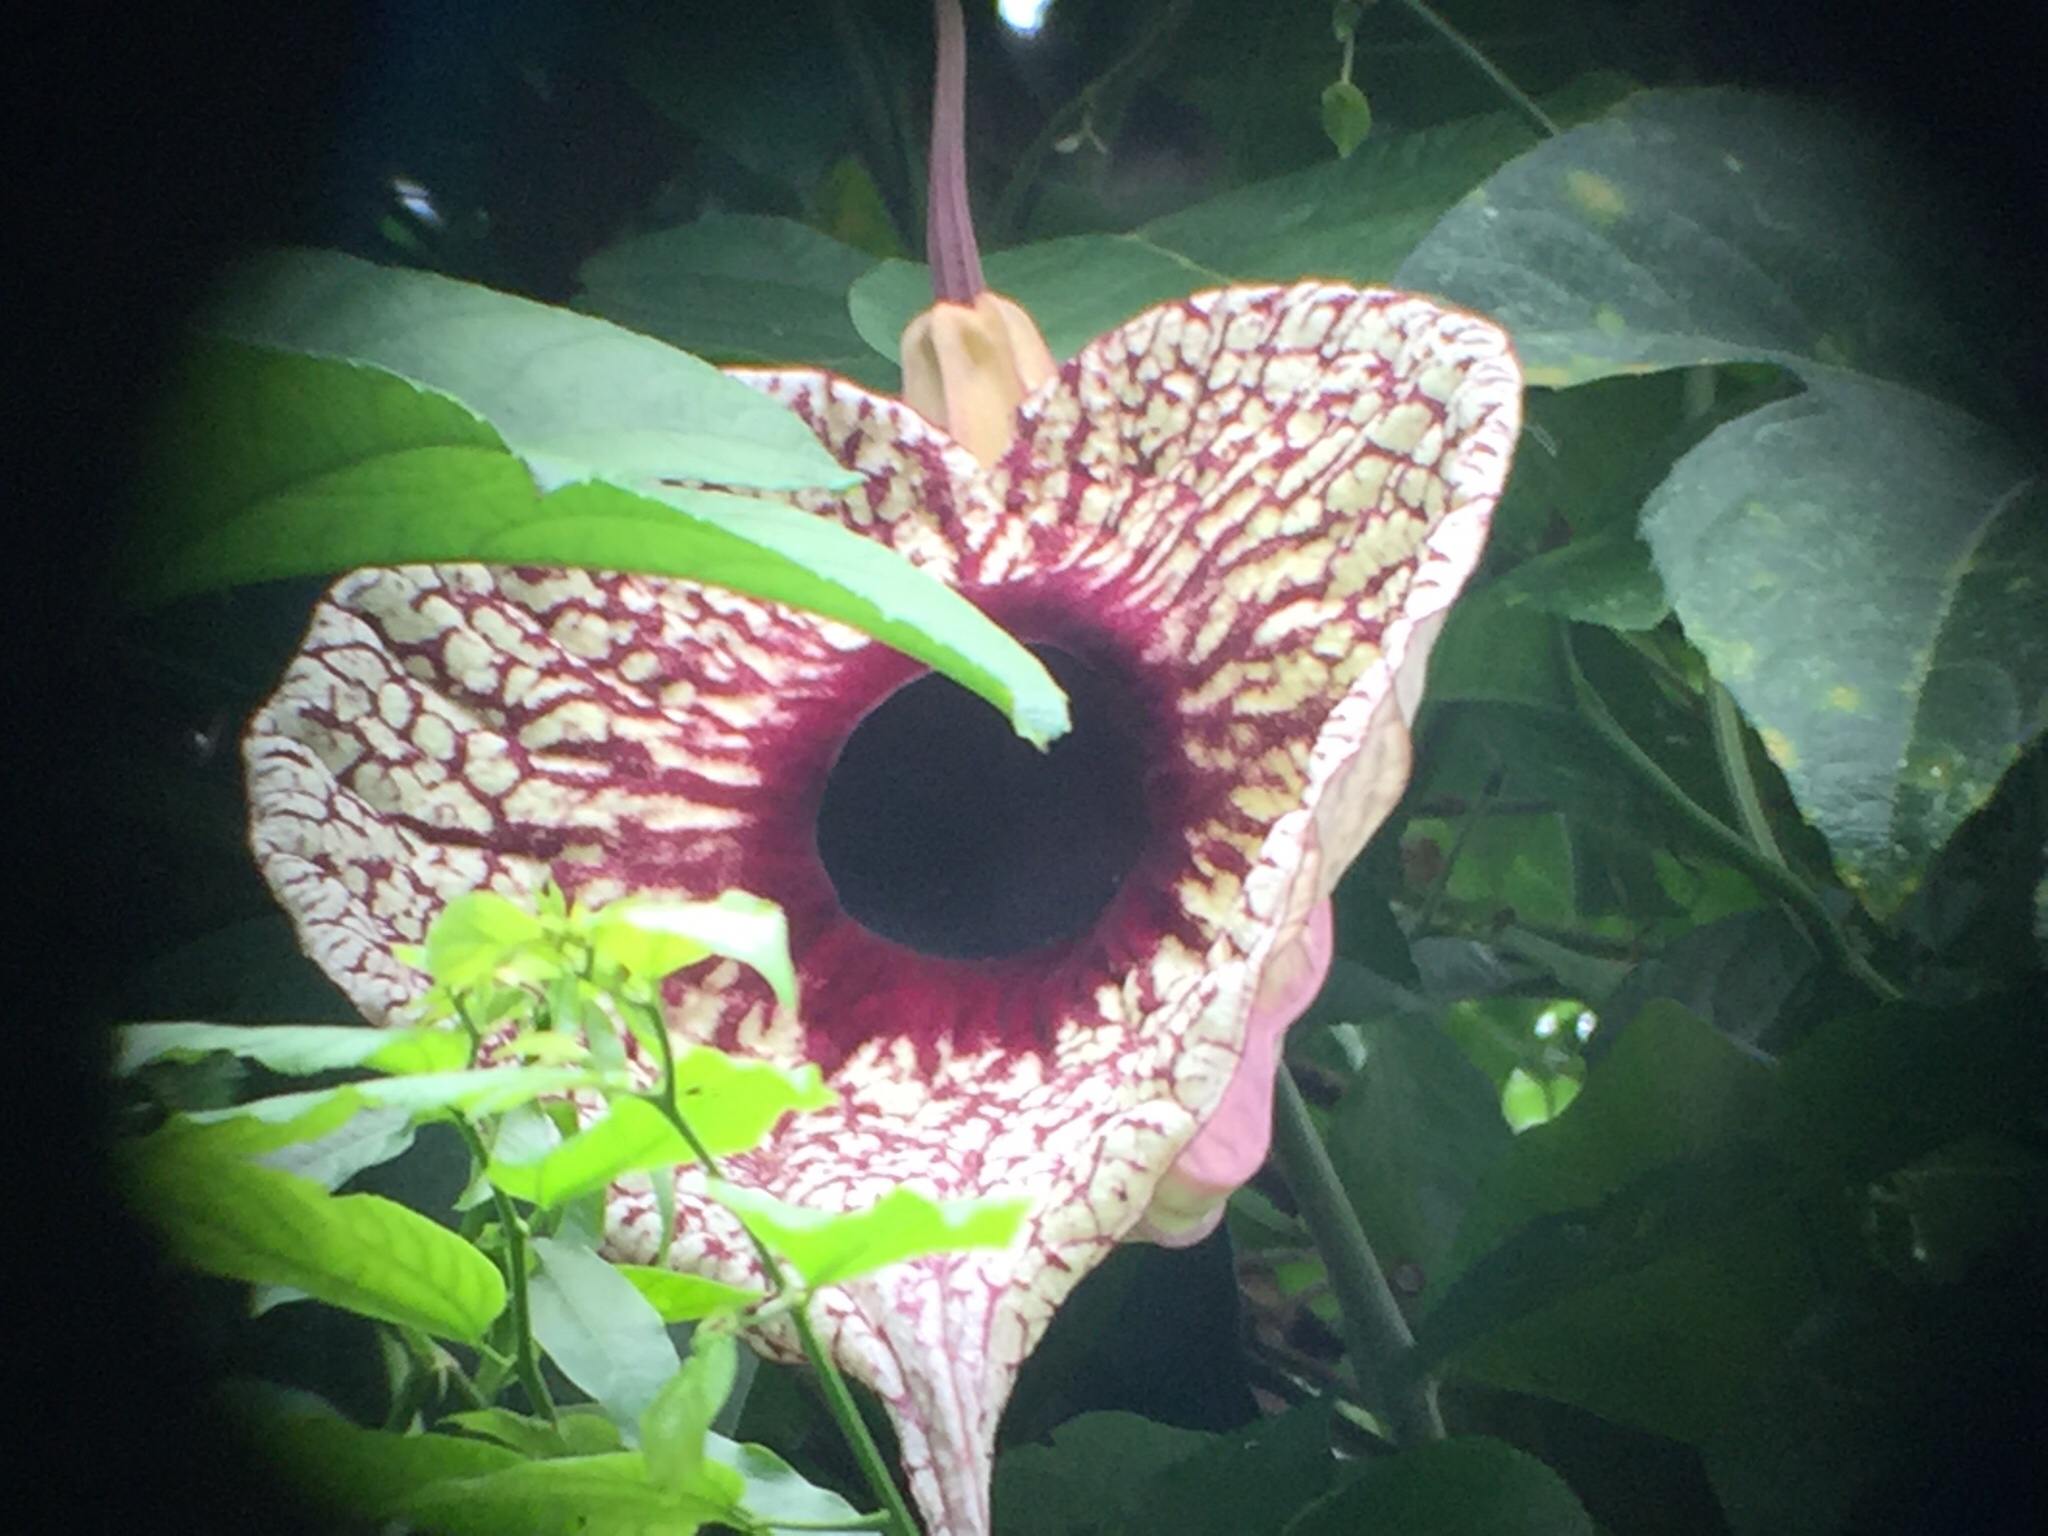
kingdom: Plantae
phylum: Tracheophyta
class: Magnoliopsida
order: Piperales
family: Aristolochiaceae
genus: Aristolochia
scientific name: Aristolochia grandiflora
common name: Pelicanflower
